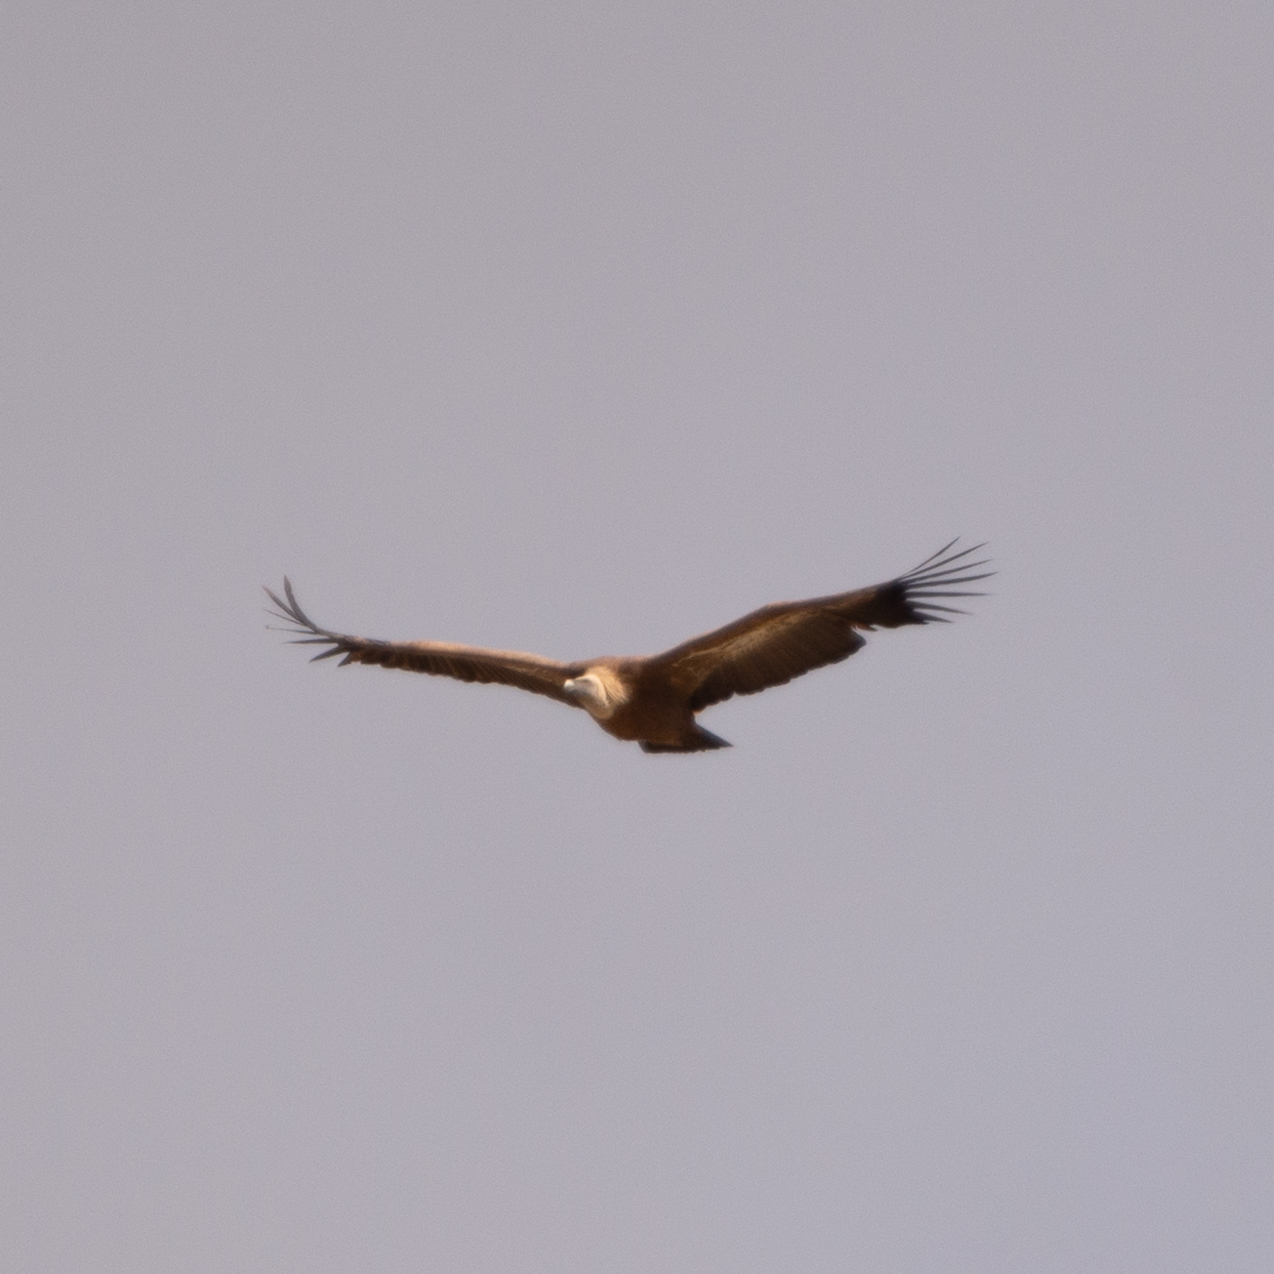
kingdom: Animalia
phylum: Chordata
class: Aves
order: Accipitriformes
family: Accipitridae
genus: Gyps
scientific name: Gyps fulvus
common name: Griffon vulture
